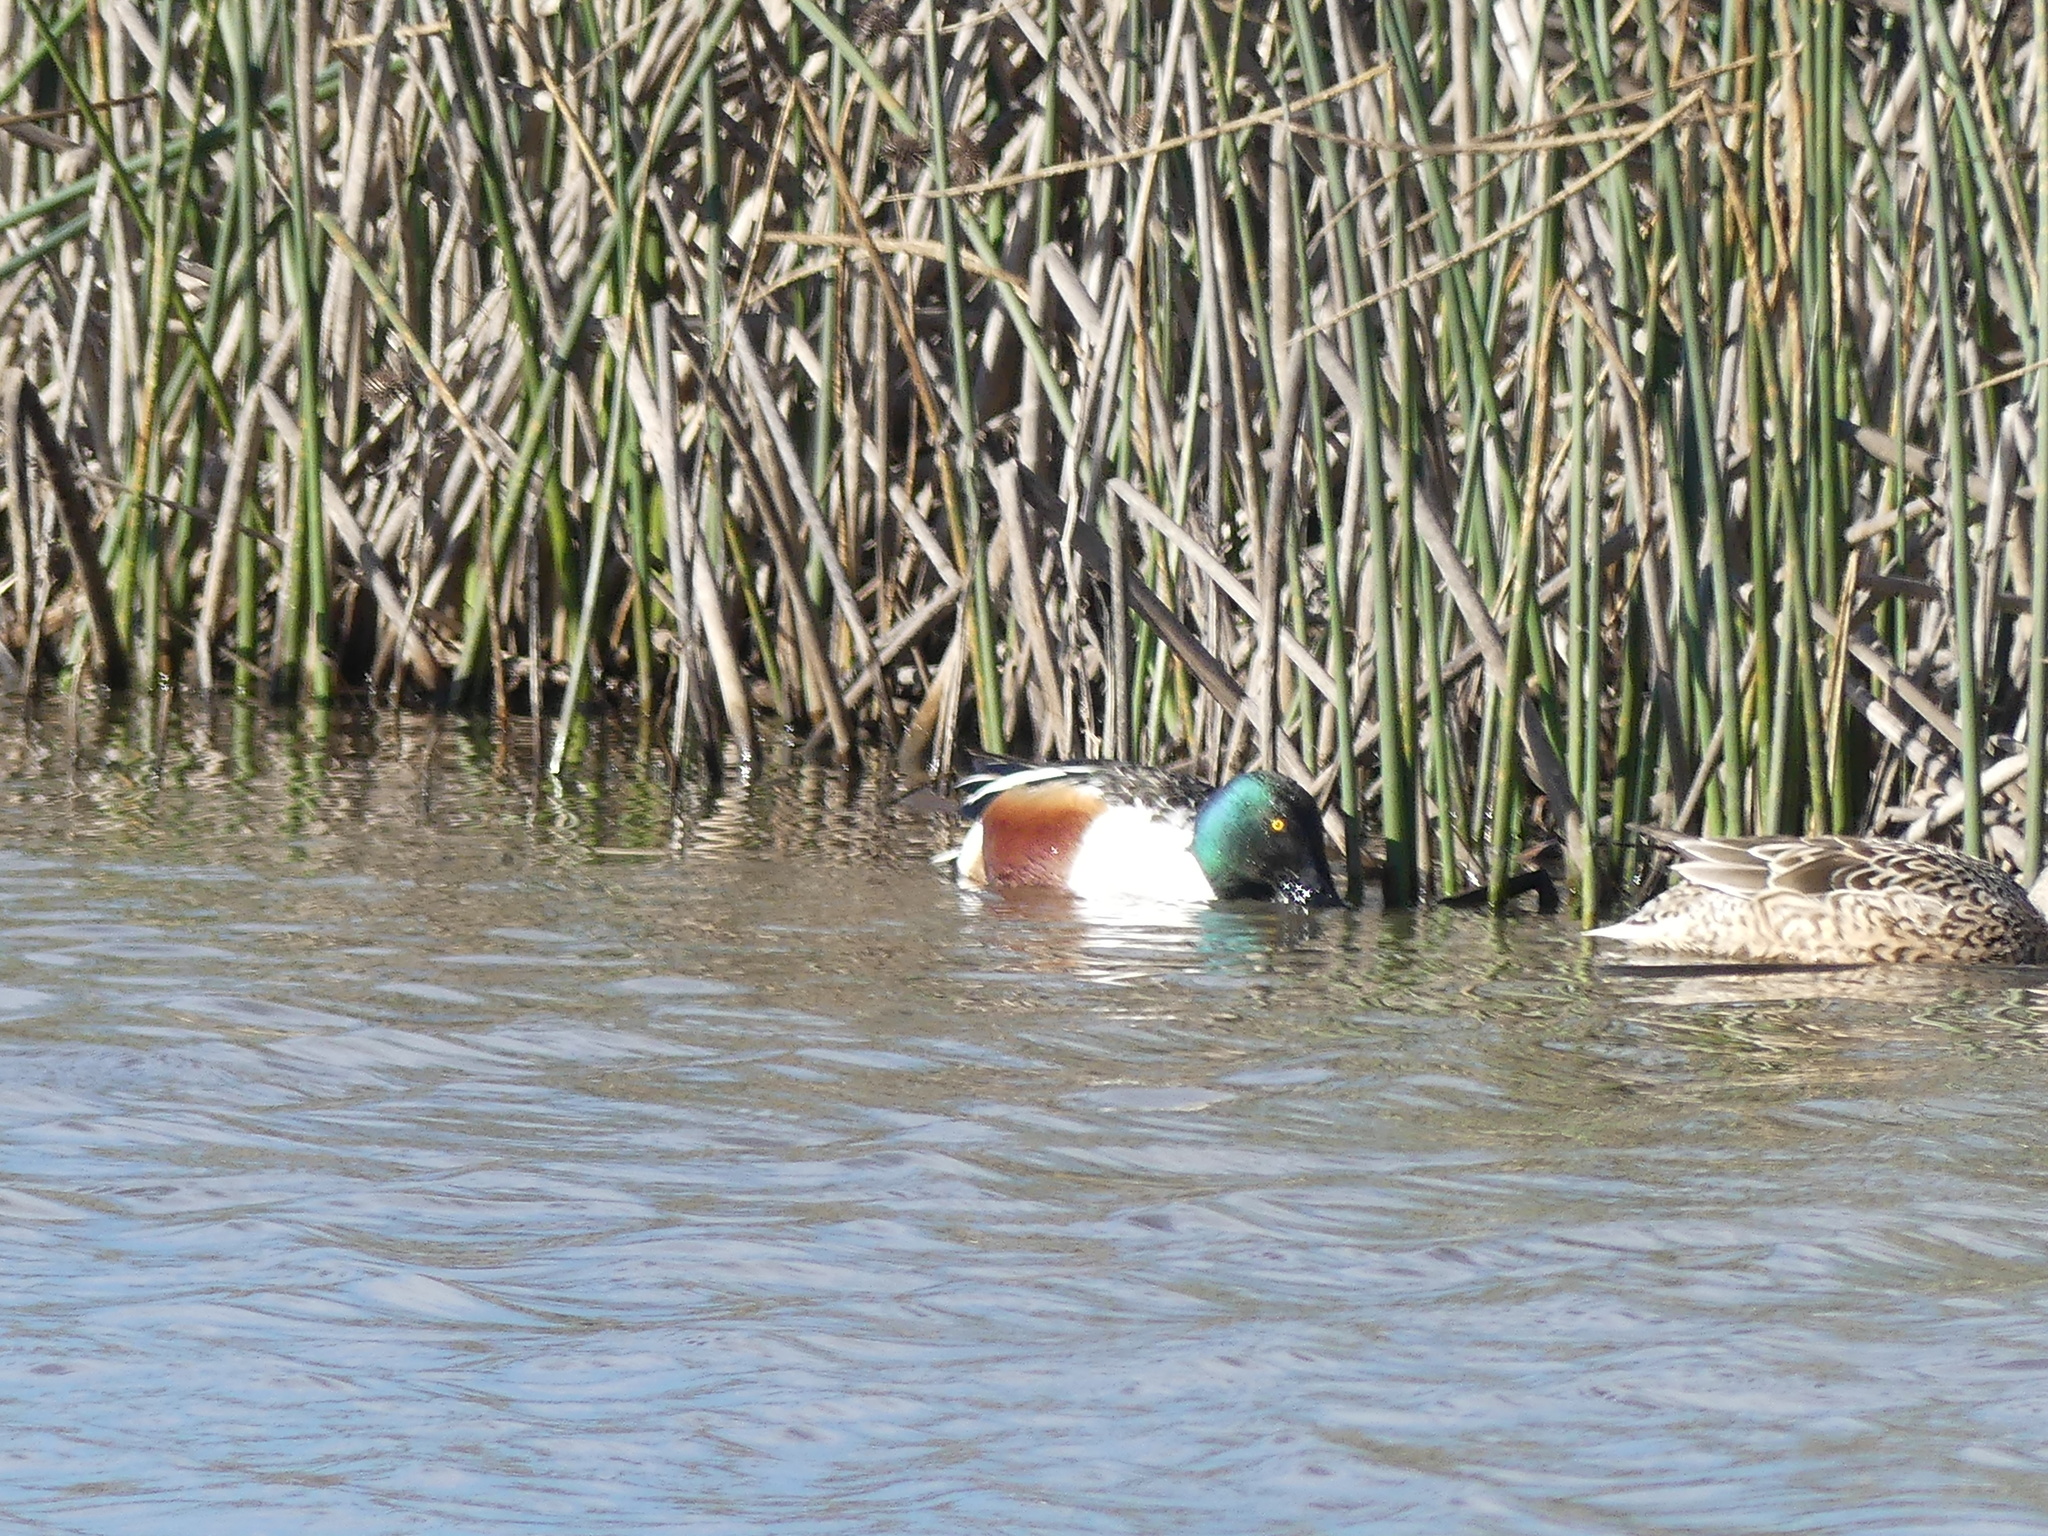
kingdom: Animalia
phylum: Chordata
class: Aves
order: Anseriformes
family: Anatidae
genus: Spatula
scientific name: Spatula clypeata
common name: Northern shoveler
